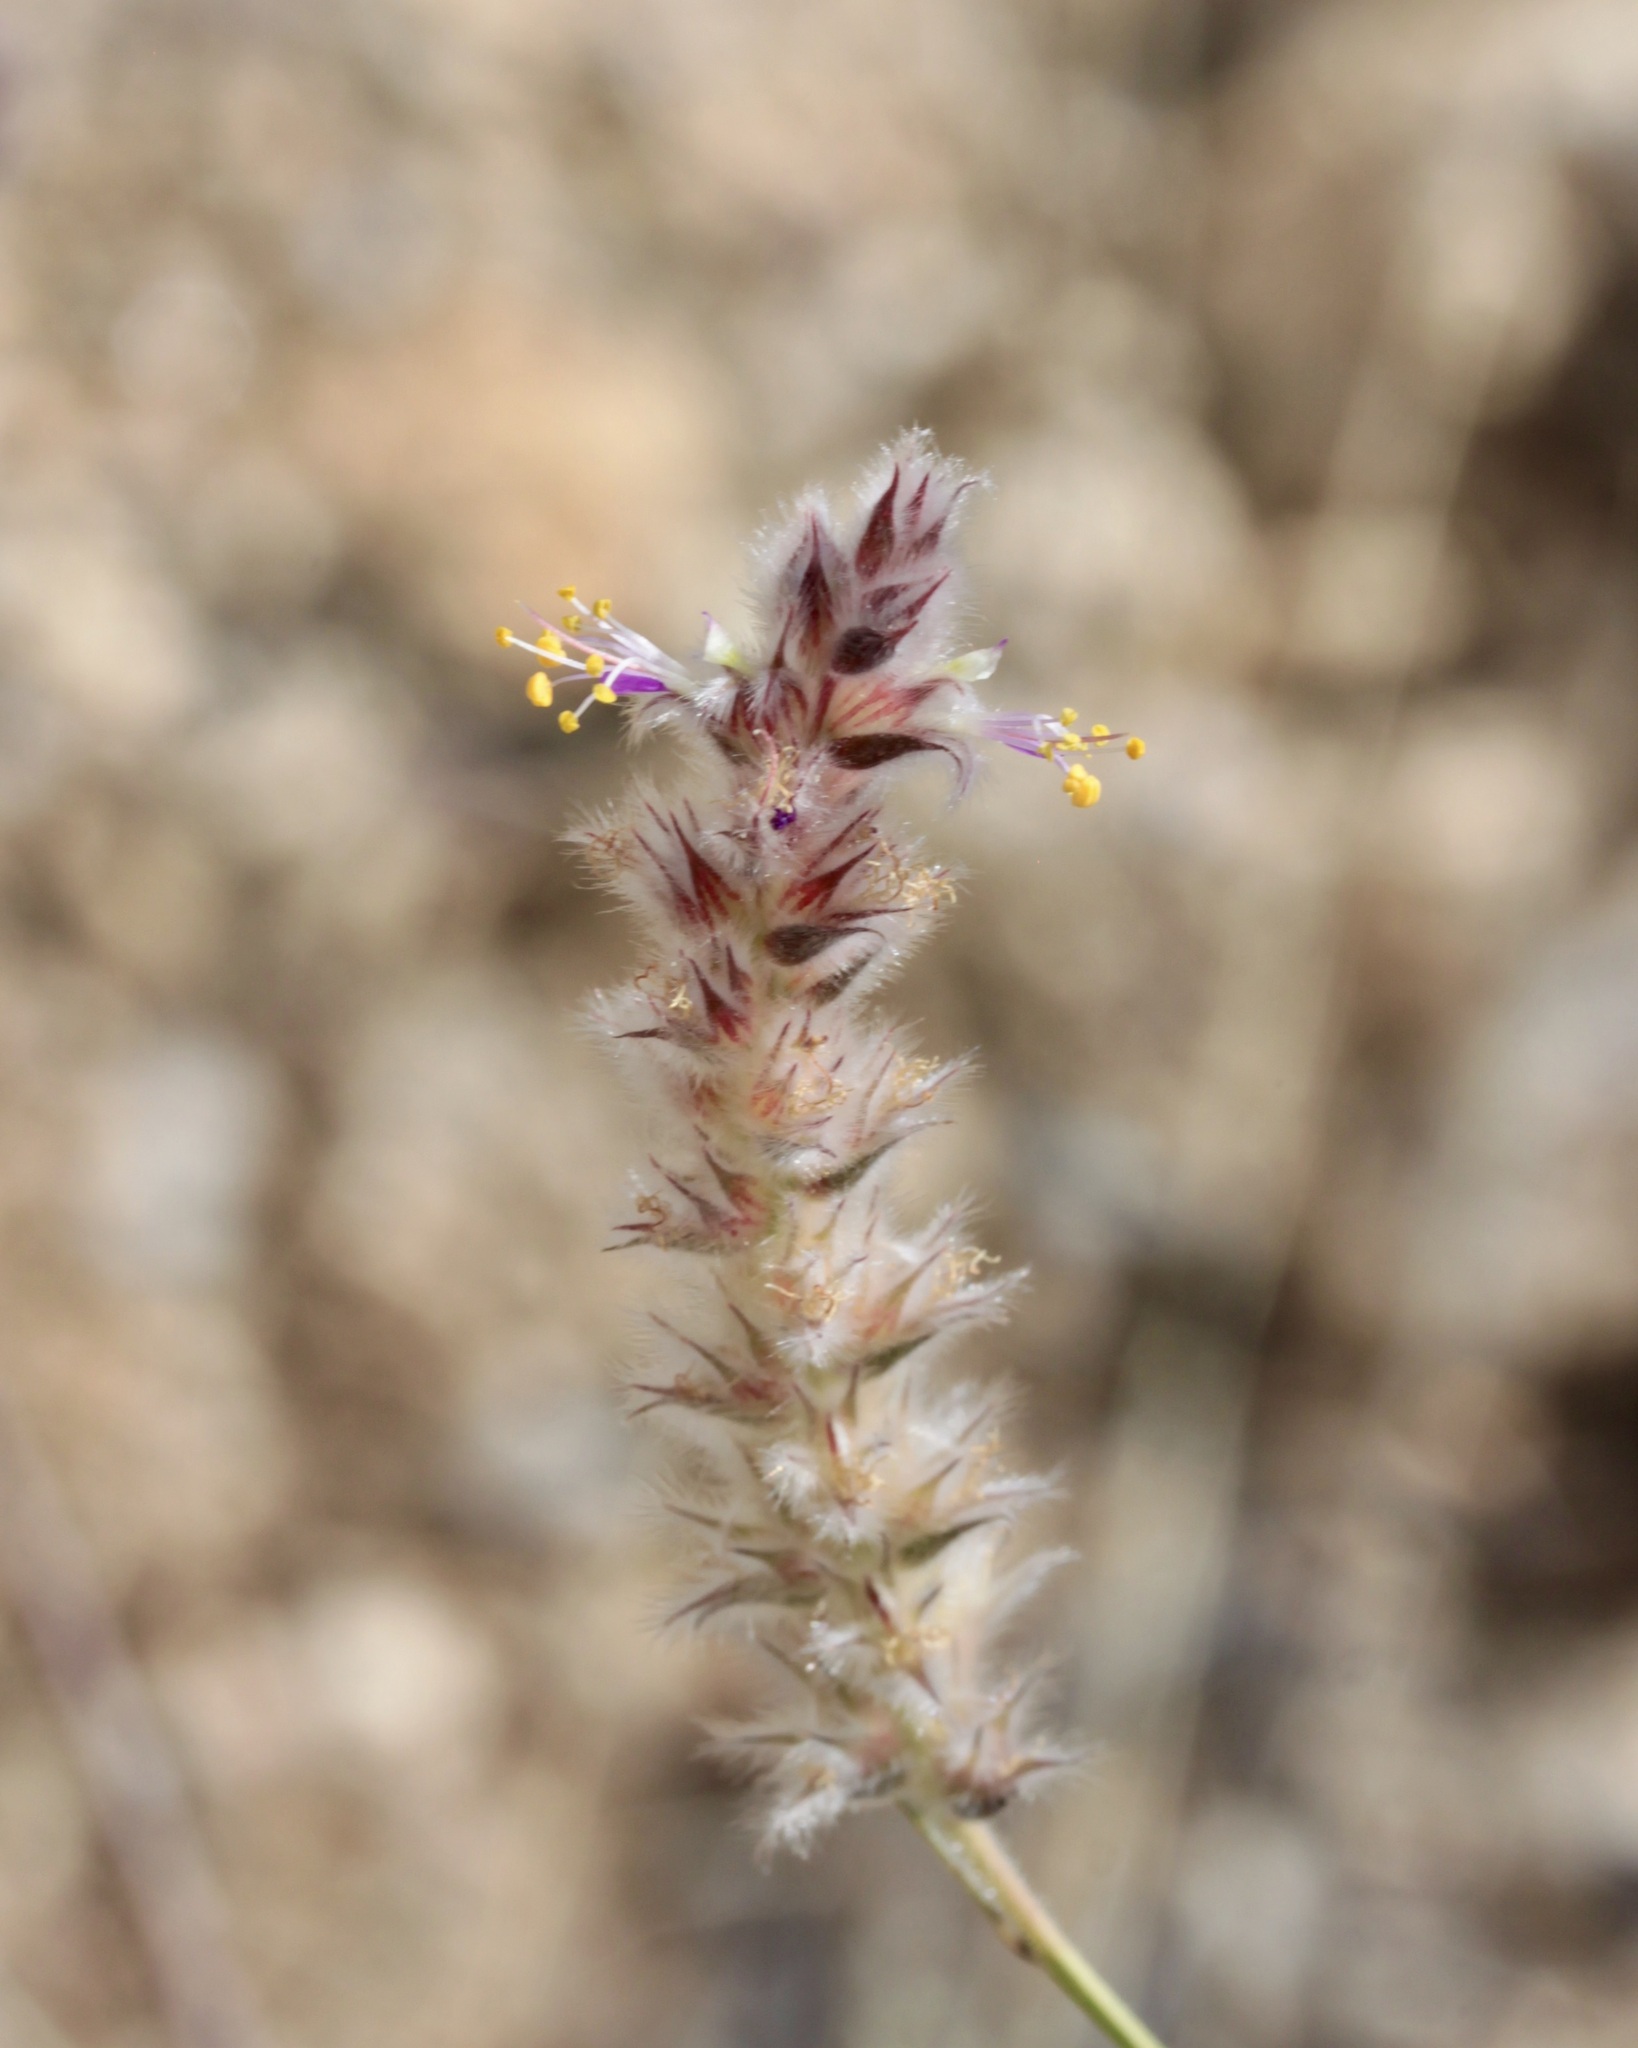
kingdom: Plantae
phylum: Tracheophyta
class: Magnoliopsida
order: Fabales
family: Fabaceae
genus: Dalea
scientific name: Dalea pringlei
